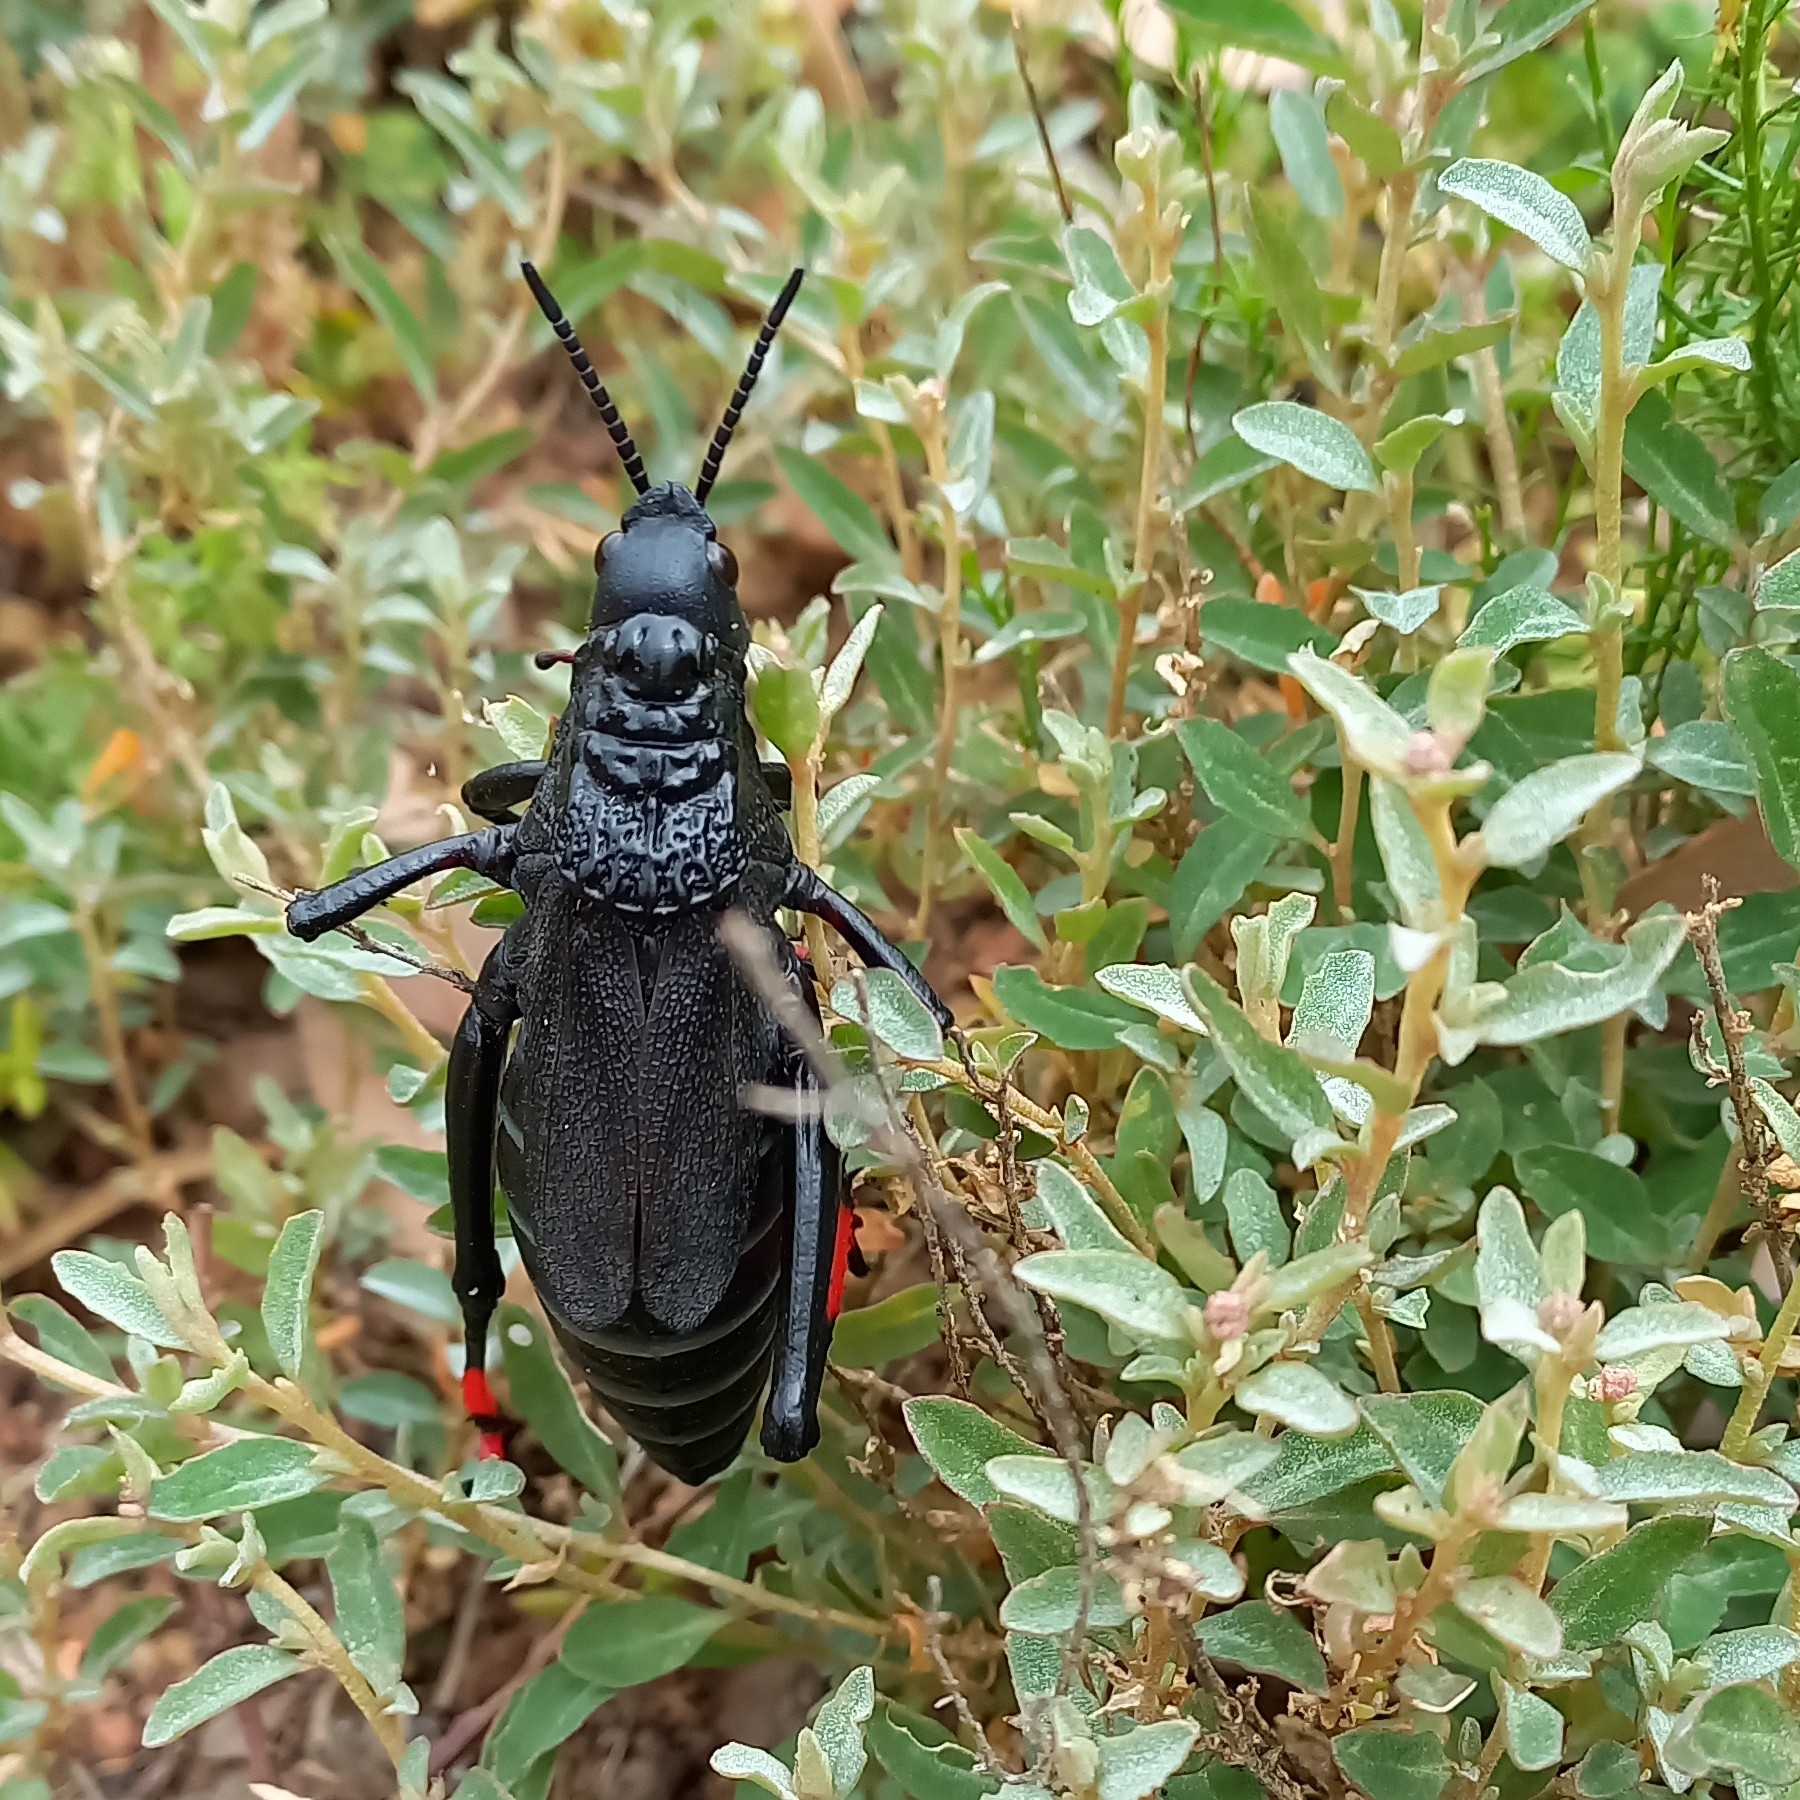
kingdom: Animalia
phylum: Arthropoda
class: Insecta
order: Orthoptera
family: Pyrgomorphidae
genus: Dictyophorus
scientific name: Dictyophorus spumans
